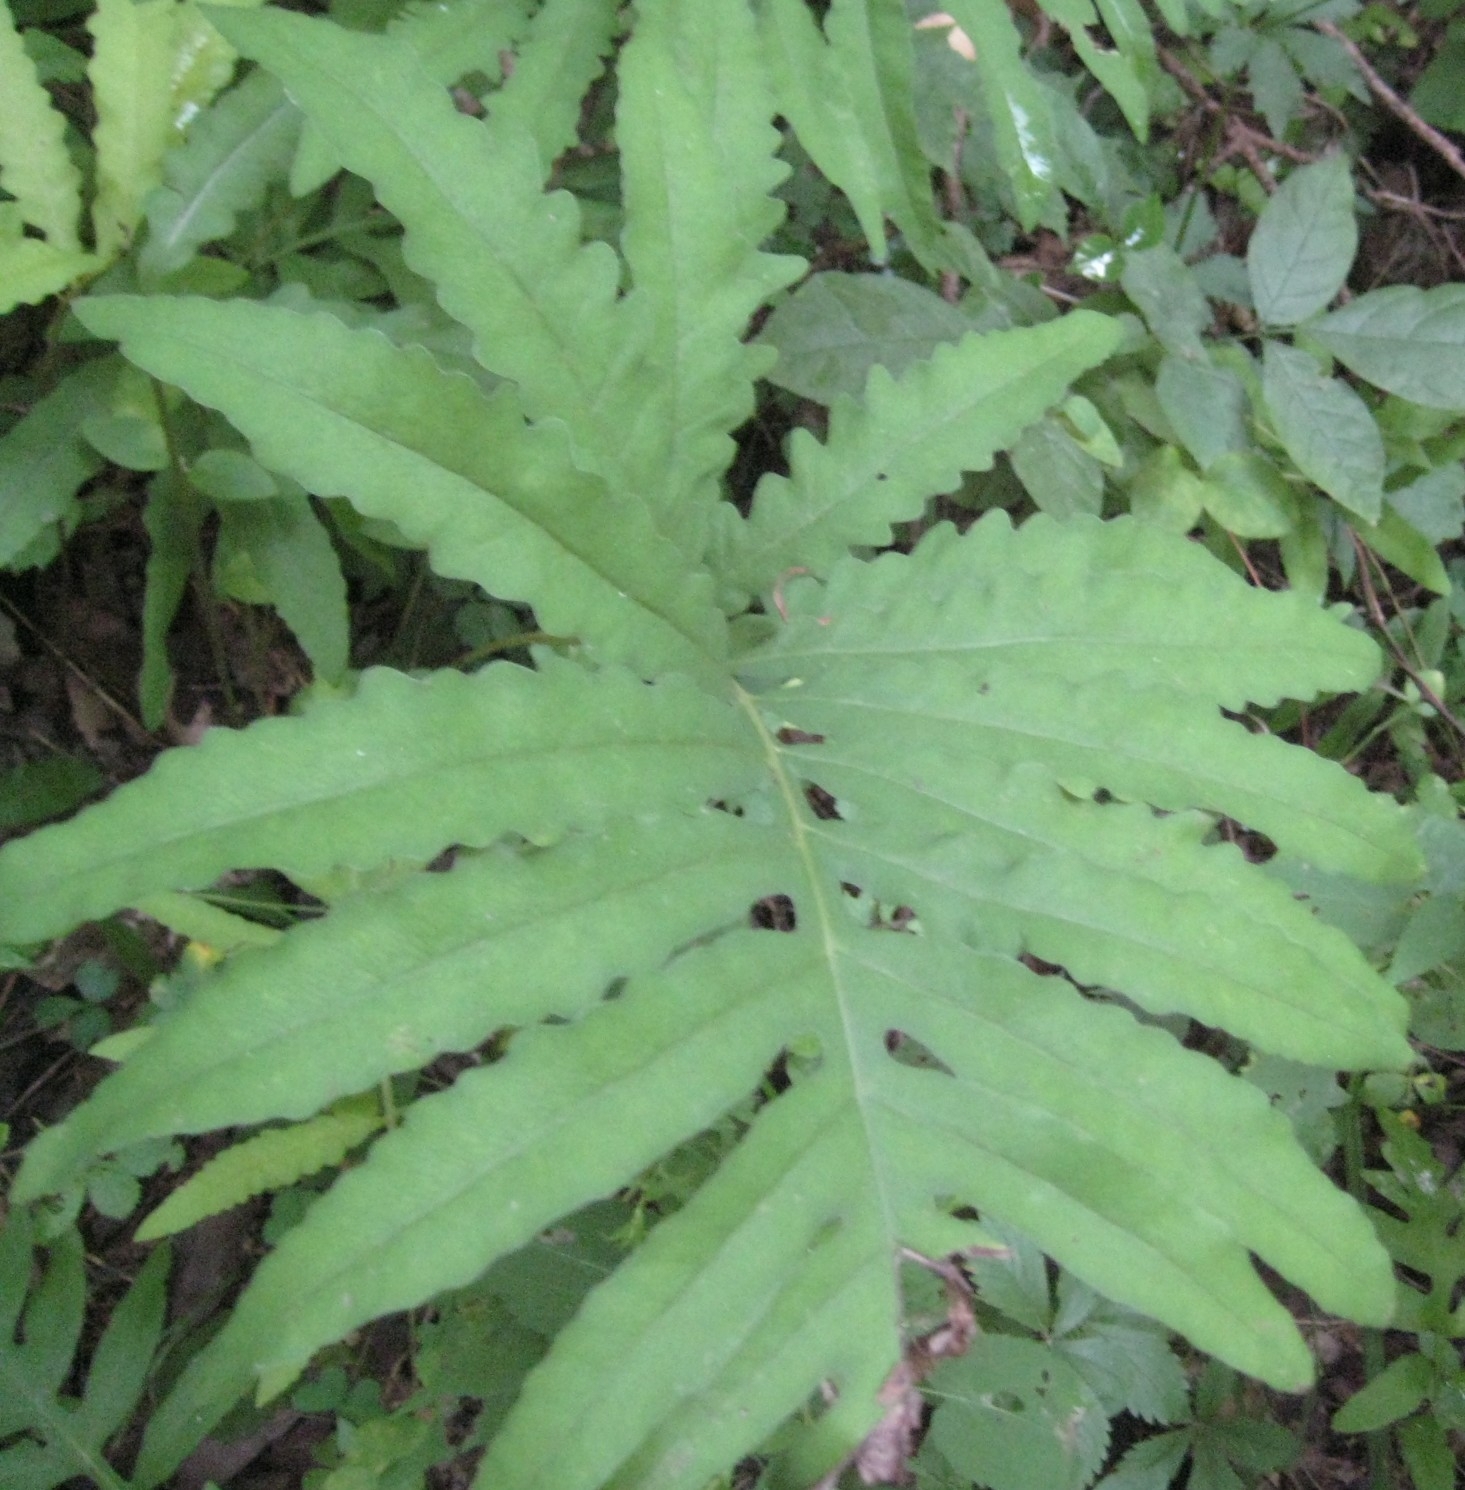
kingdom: Plantae
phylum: Tracheophyta
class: Polypodiopsida
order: Polypodiales
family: Onocleaceae
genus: Onoclea
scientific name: Onoclea sensibilis
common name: Sensitive fern
